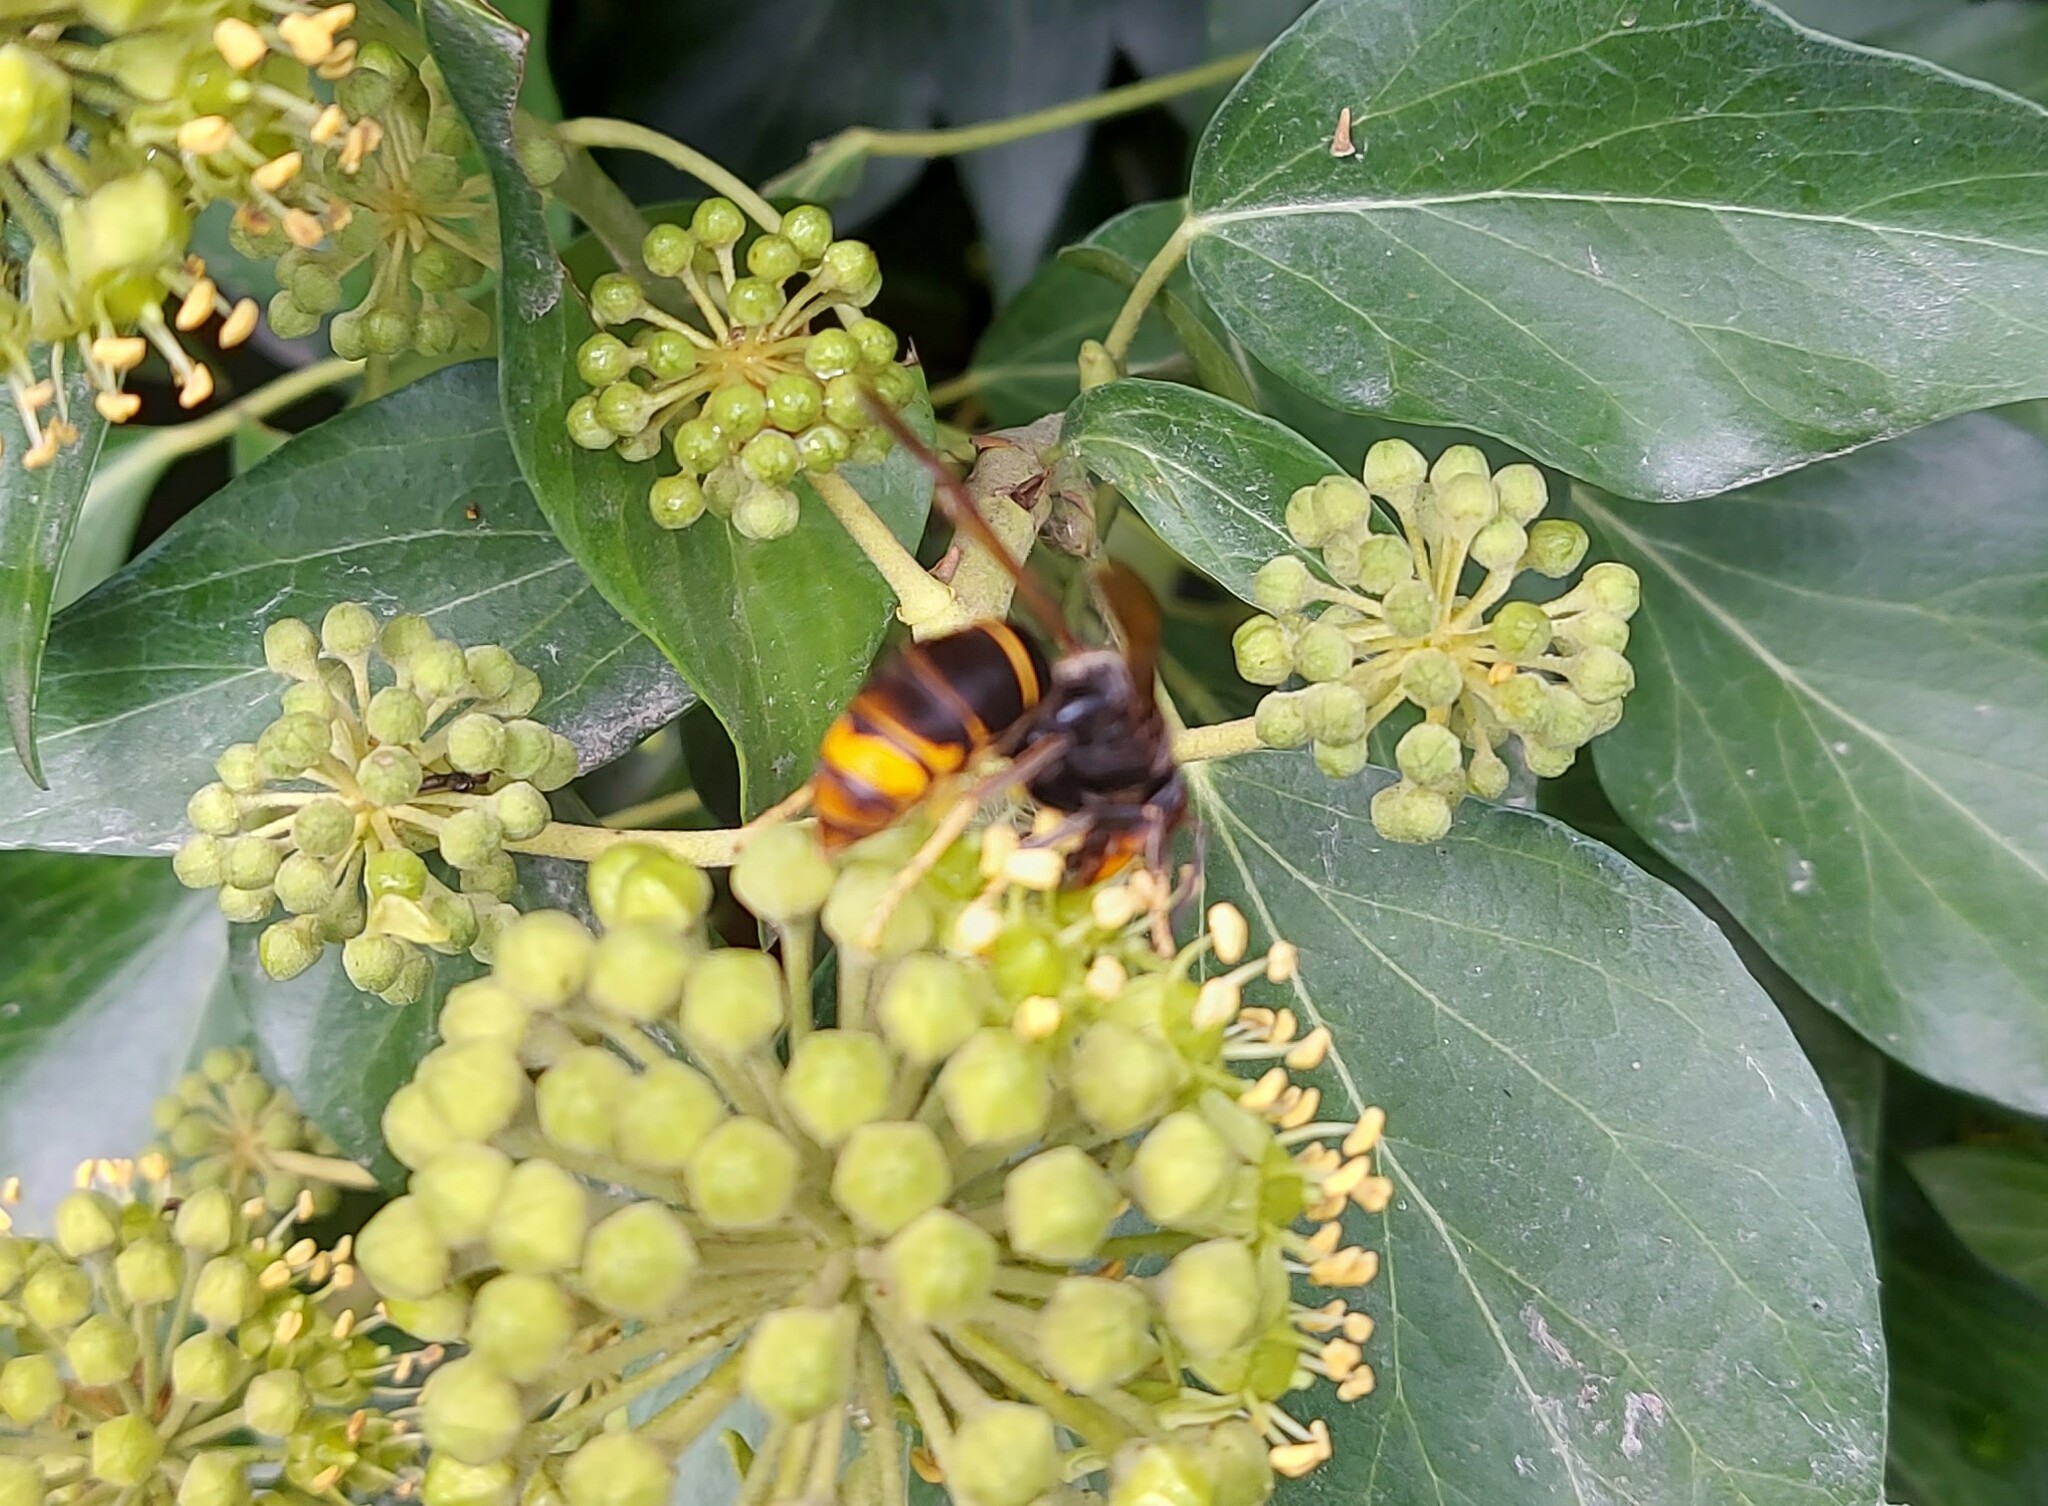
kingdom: Animalia
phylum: Arthropoda
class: Insecta
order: Hymenoptera
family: Vespidae
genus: Vespa
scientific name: Vespa velutina
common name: Asian hornet
